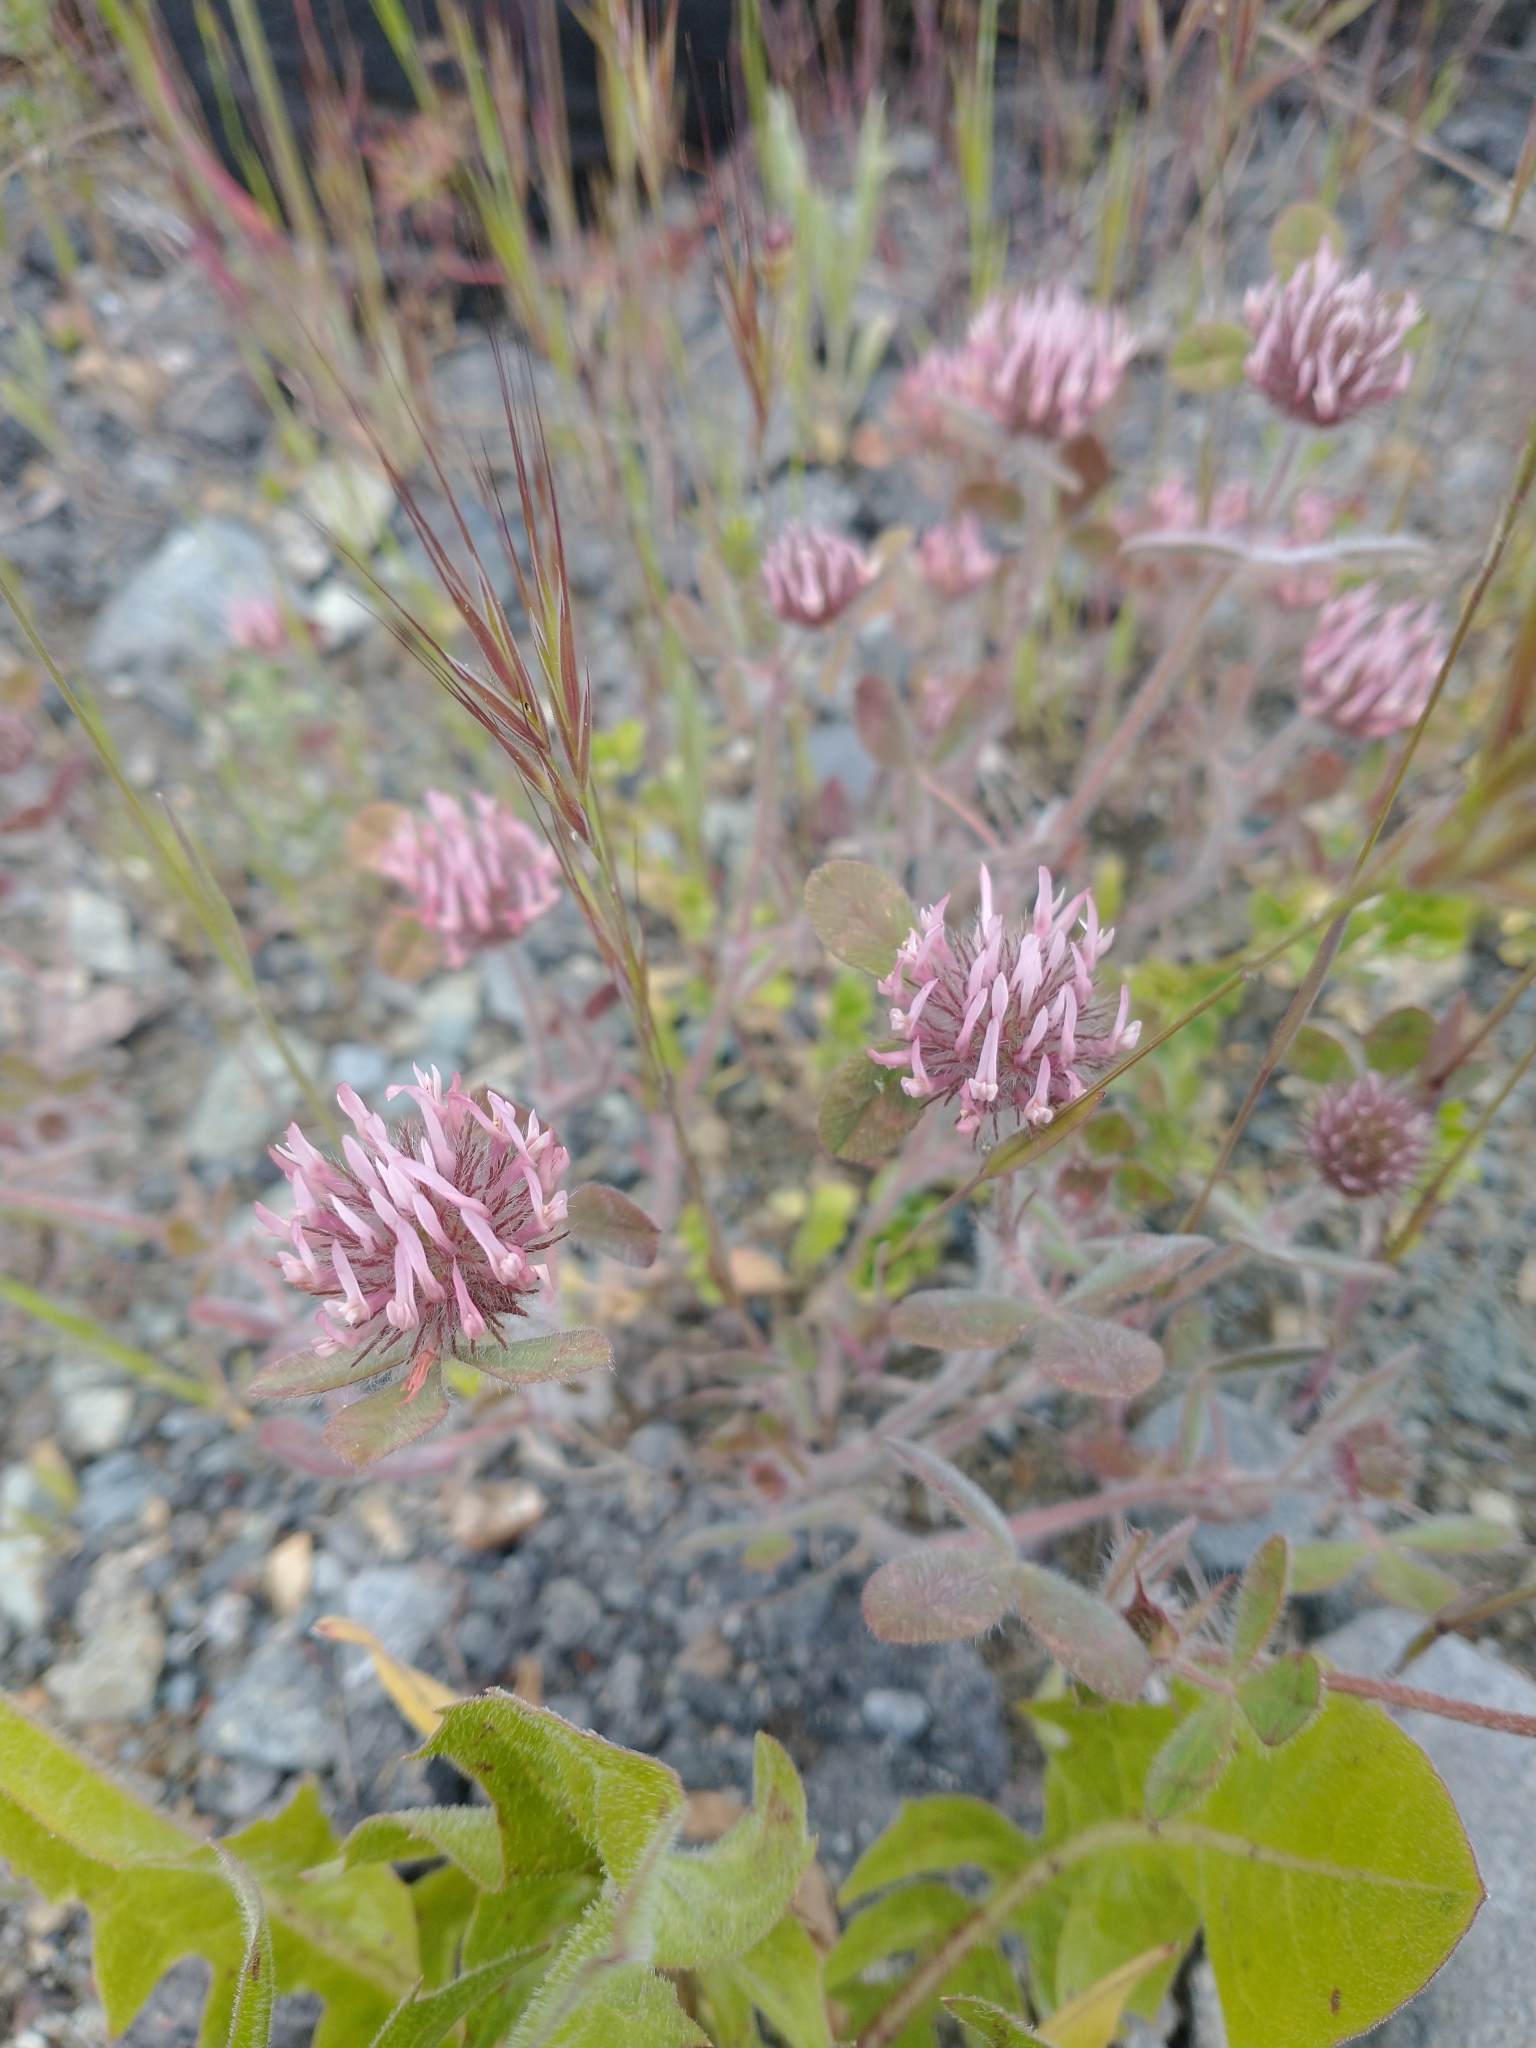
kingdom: Plantae
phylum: Tracheophyta
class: Magnoliopsida
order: Fabales
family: Fabaceae
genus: Trifolium
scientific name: Trifolium hirtum
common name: Rose clover
